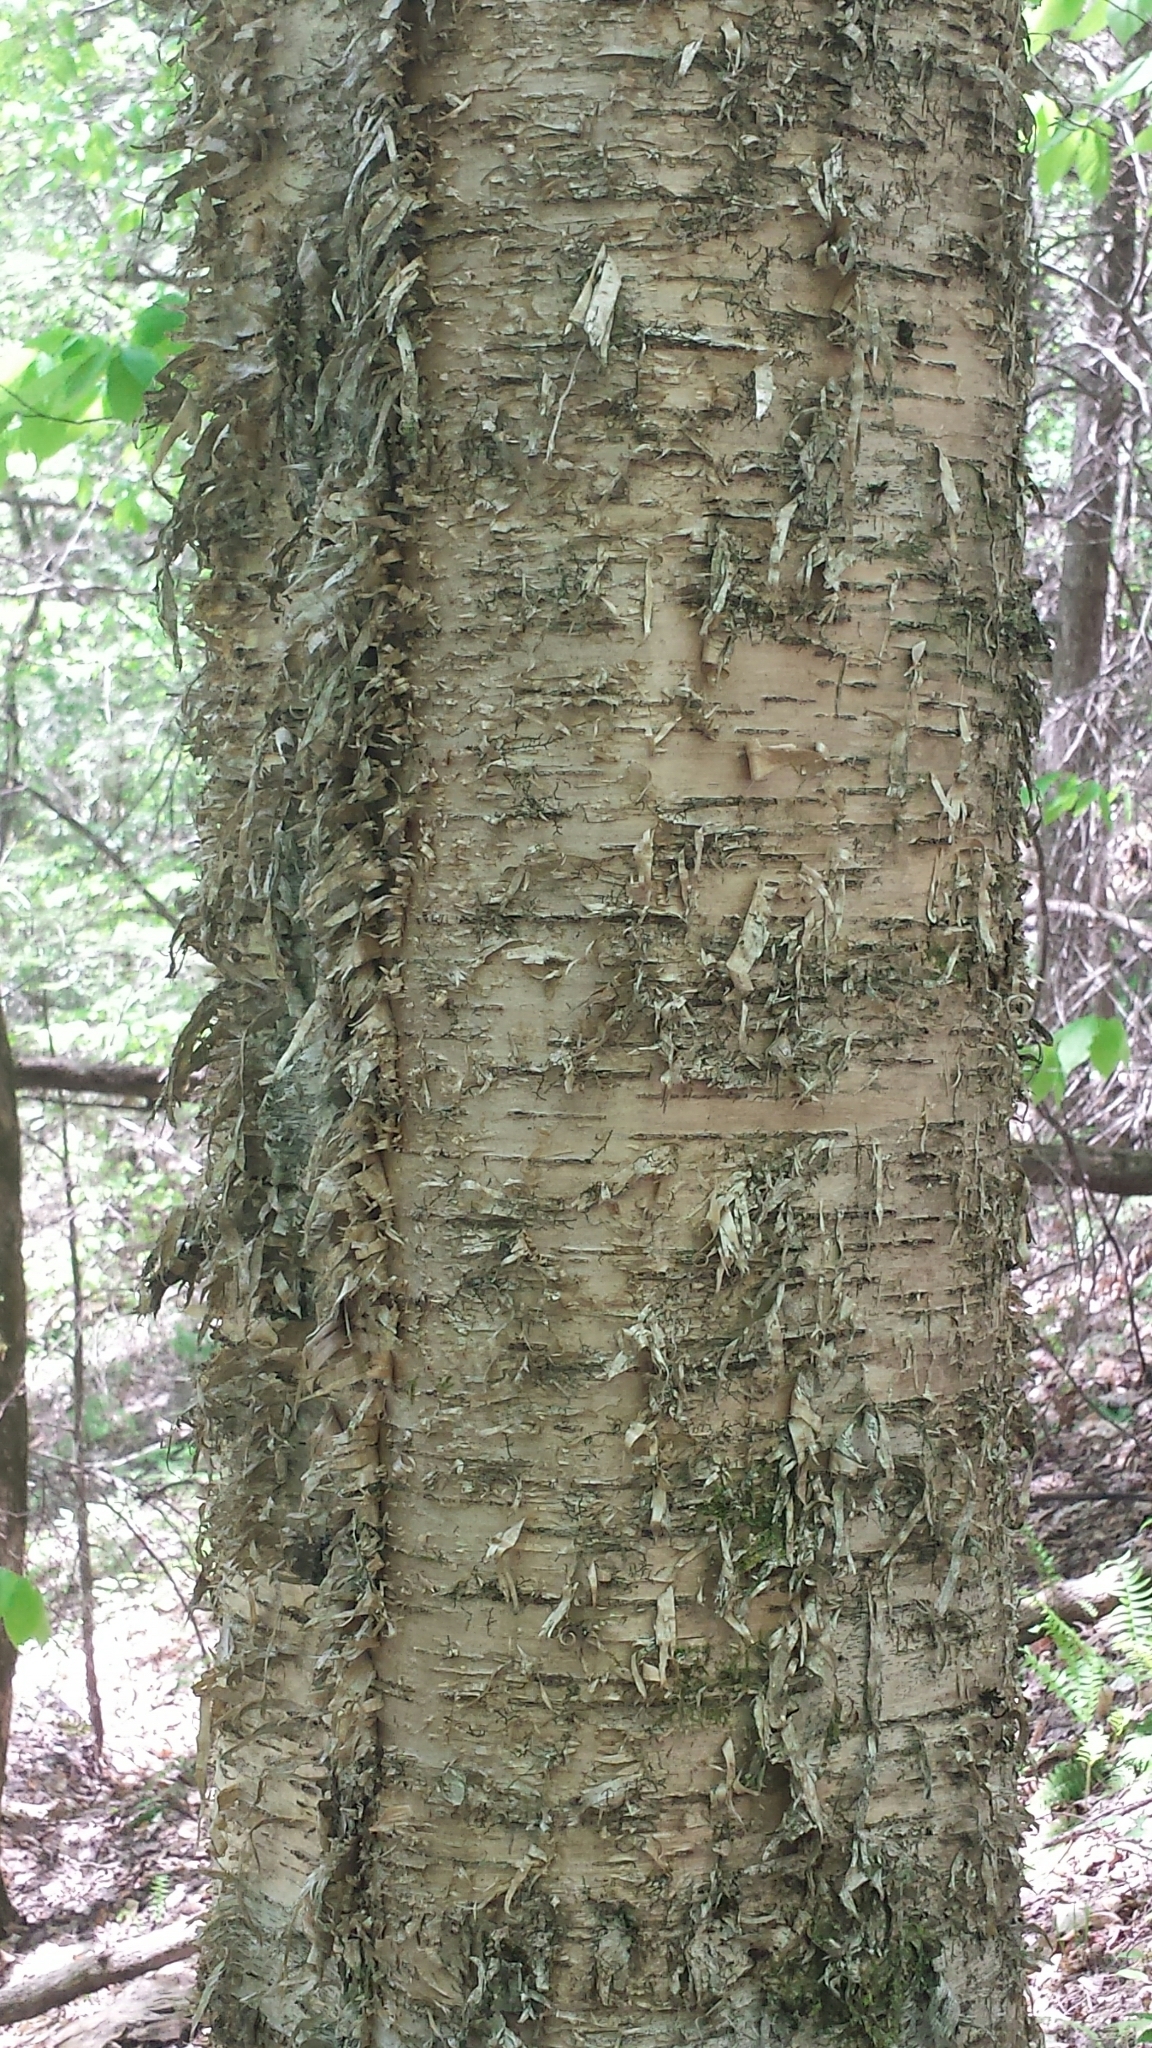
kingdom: Plantae
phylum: Tracheophyta
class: Magnoliopsida
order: Fagales
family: Betulaceae
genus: Betula
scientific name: Betula alleghaniensis
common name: Yellow birch
